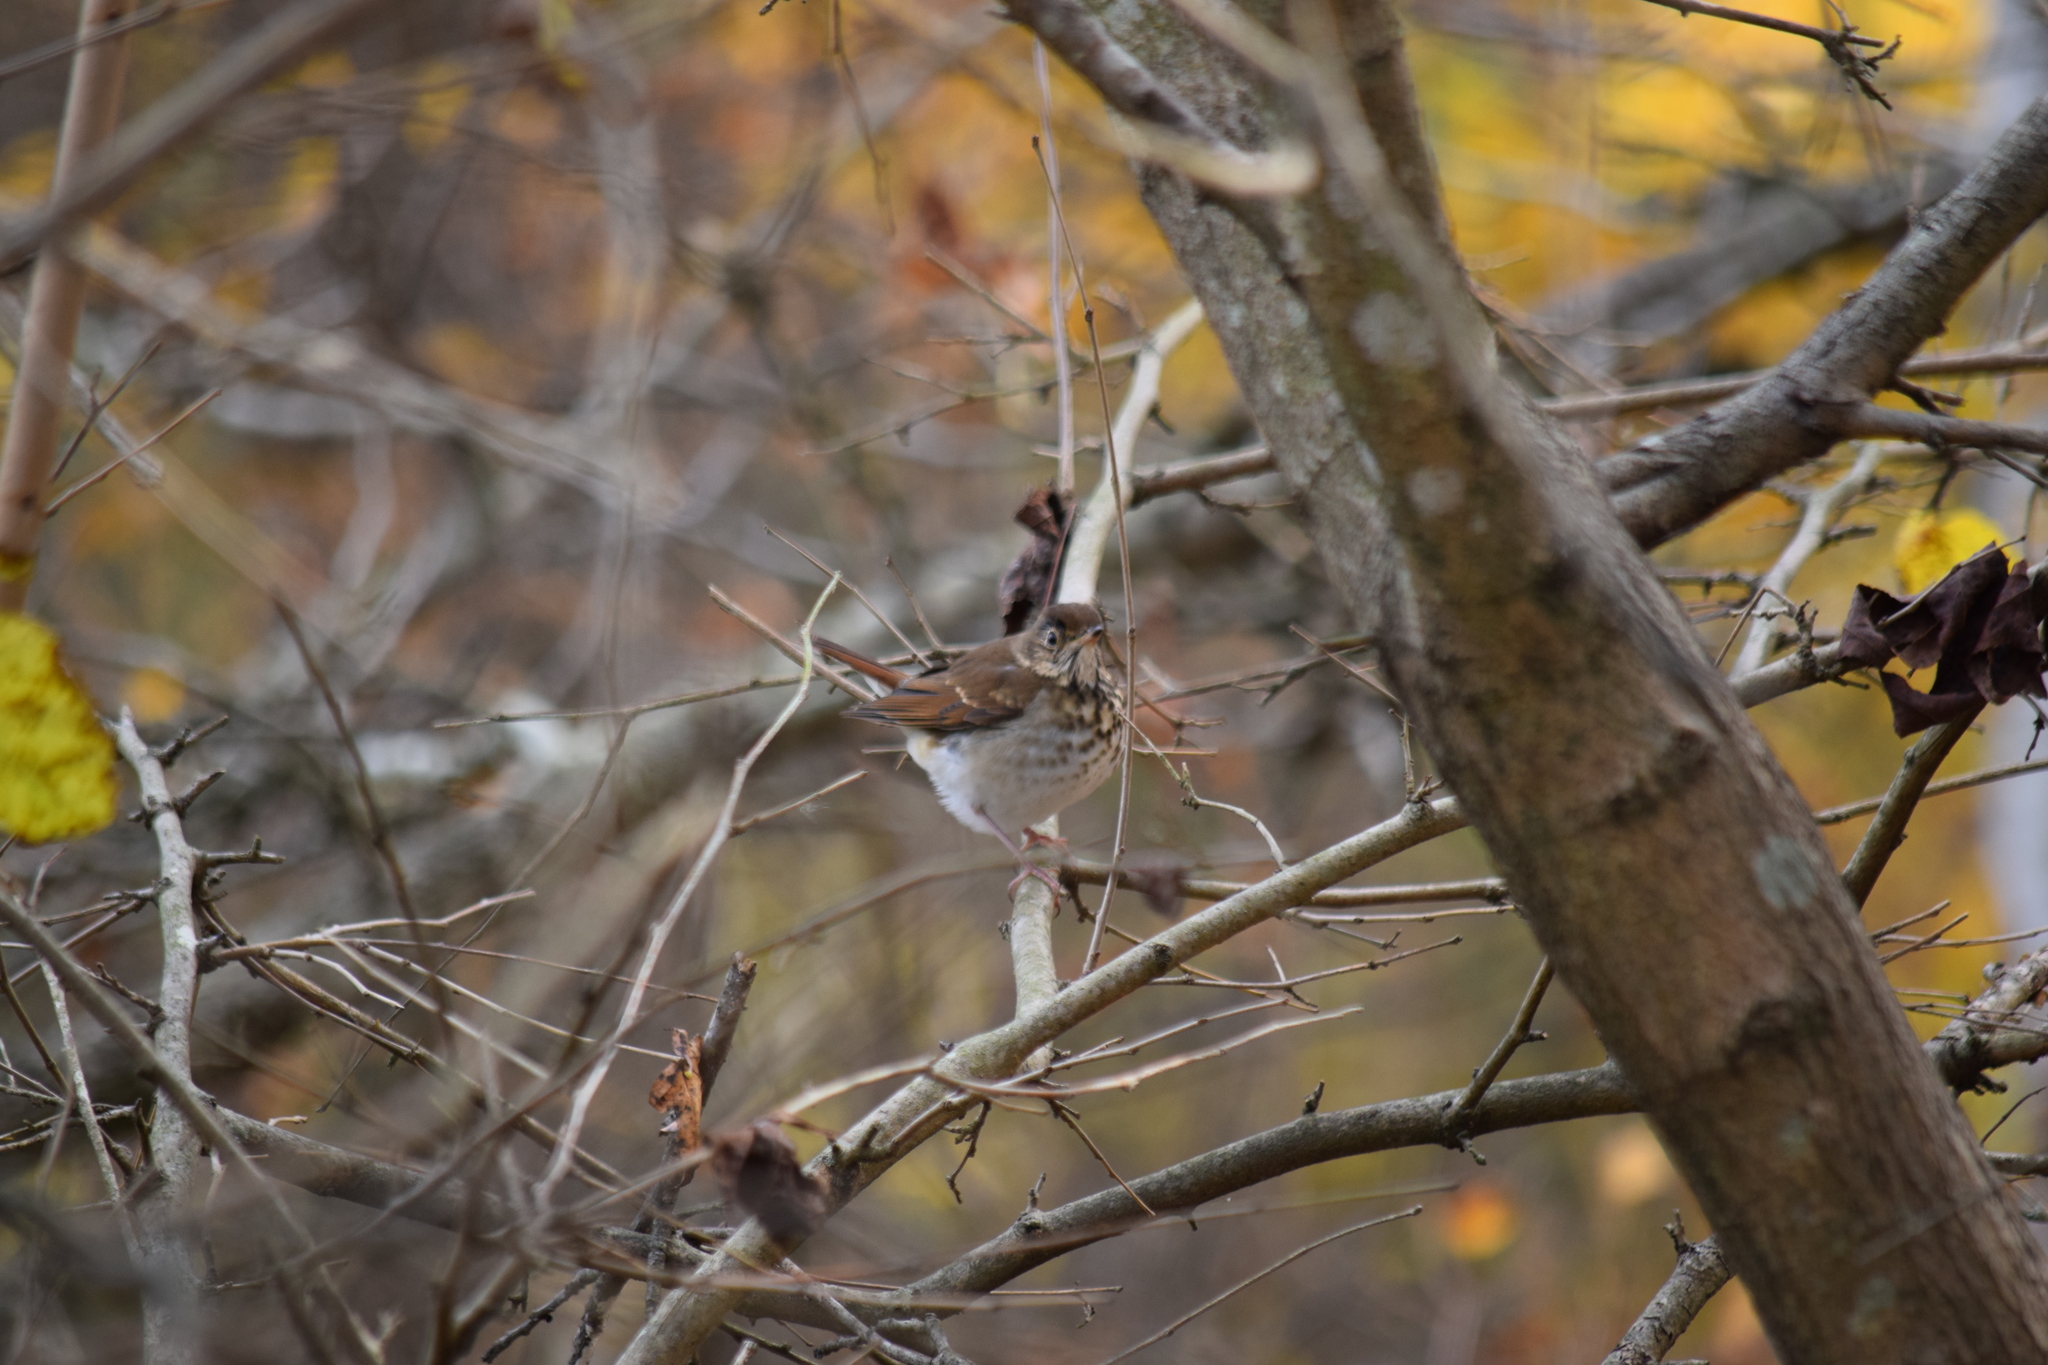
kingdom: Animalia
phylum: Chordata
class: Aves
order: Passeriformes
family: Turdidae
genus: Catharus
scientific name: Catharus guttatus
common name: Hermit thrush
